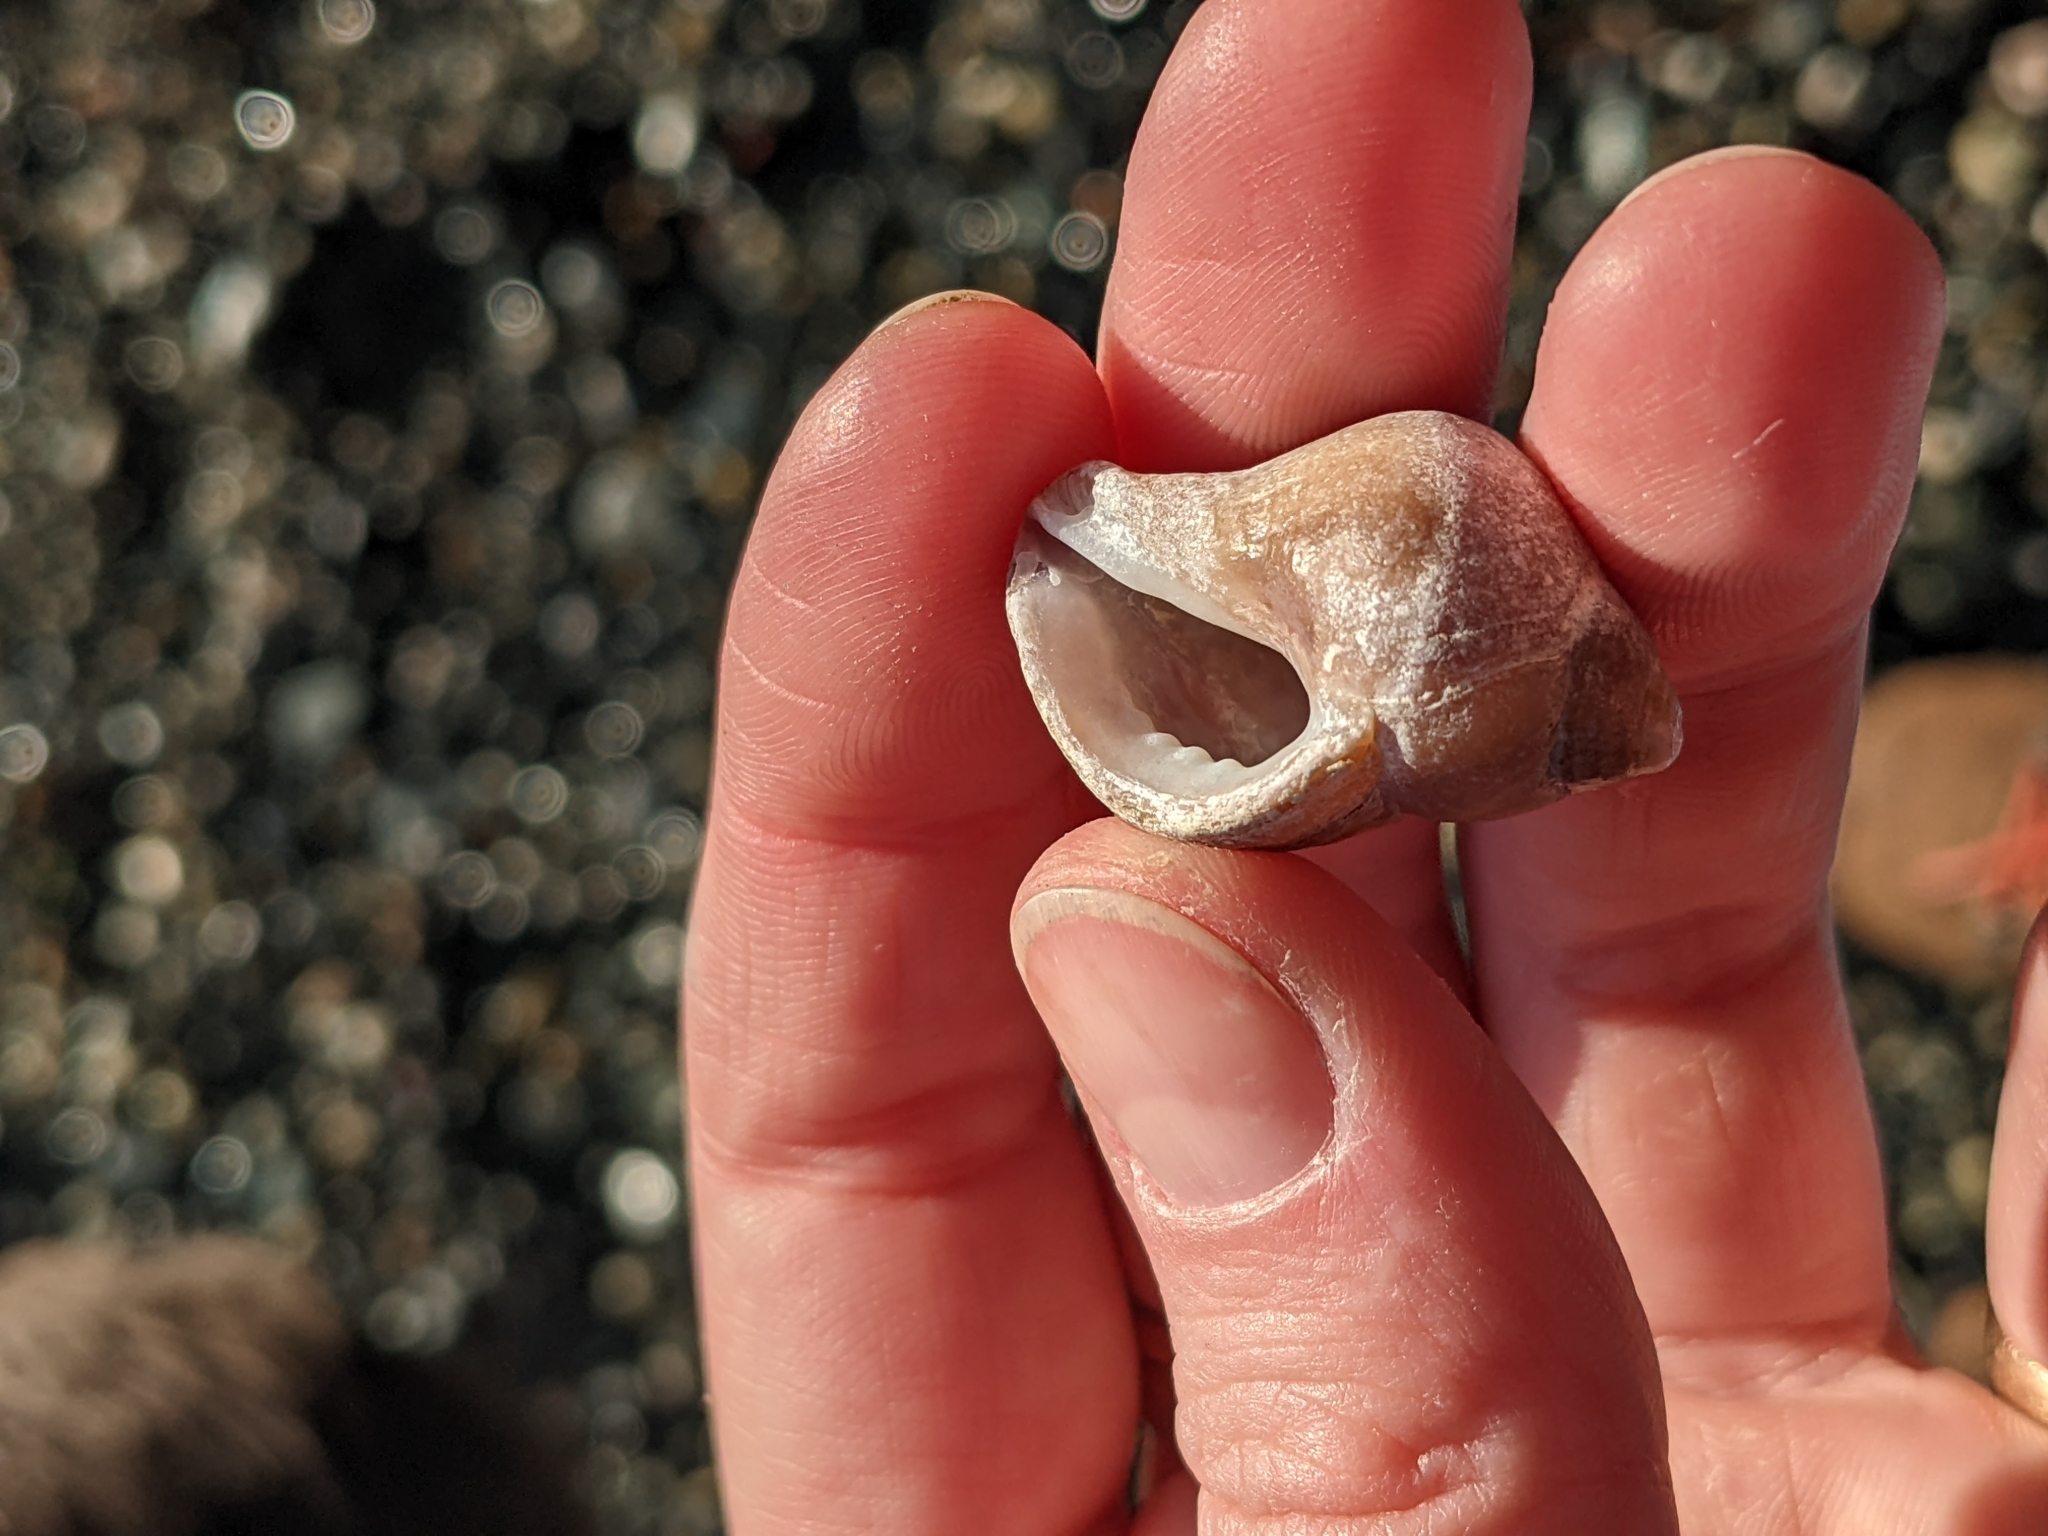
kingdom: Animalia
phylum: Mollusca
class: Gastropoda
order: Neogastropoda
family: Muricidae
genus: Nucella
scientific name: Nucella lamellosa
